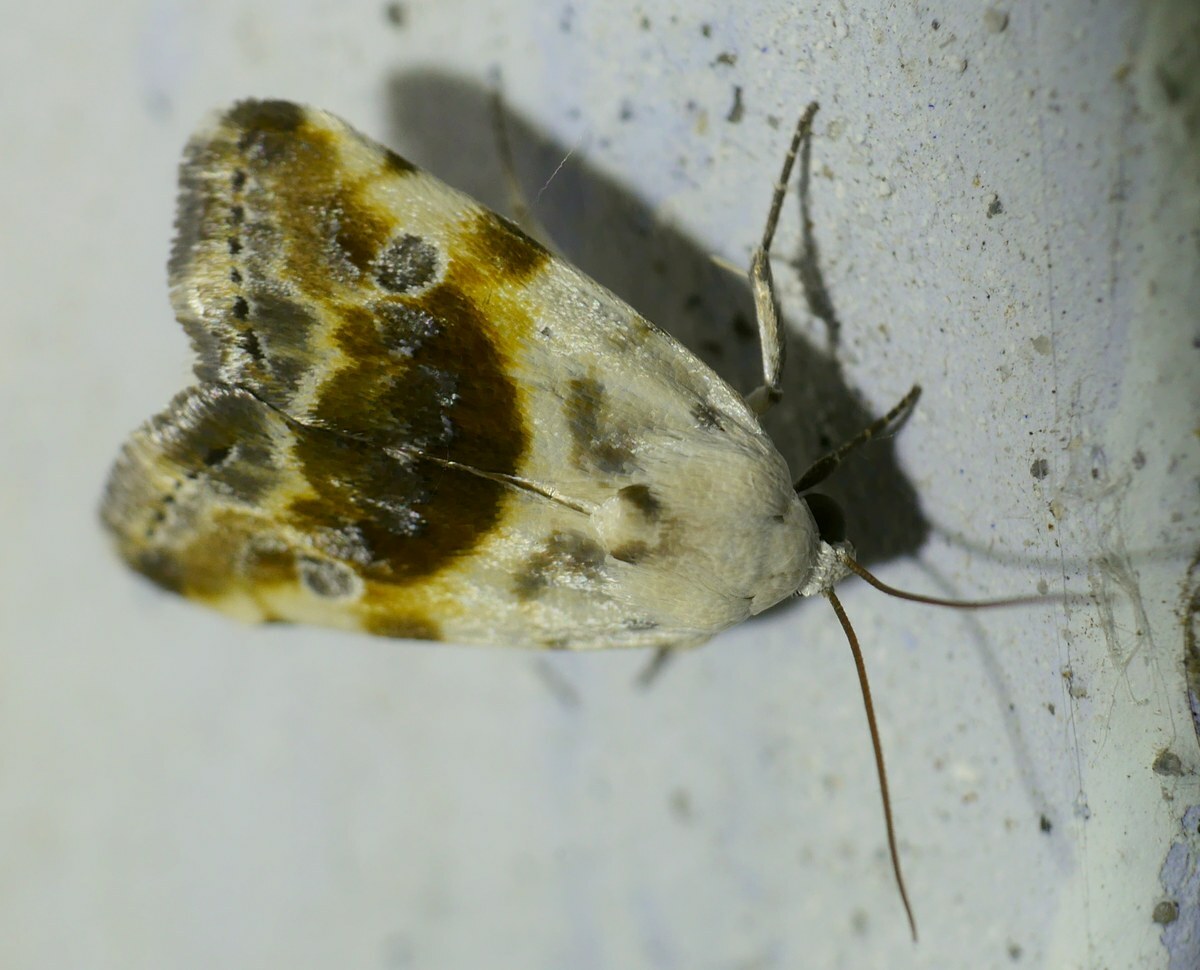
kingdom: Animalia
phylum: Arthropoda
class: Insecta
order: Lepidoptera
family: Noctuidae
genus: Acontia
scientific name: Acontia candefacta
